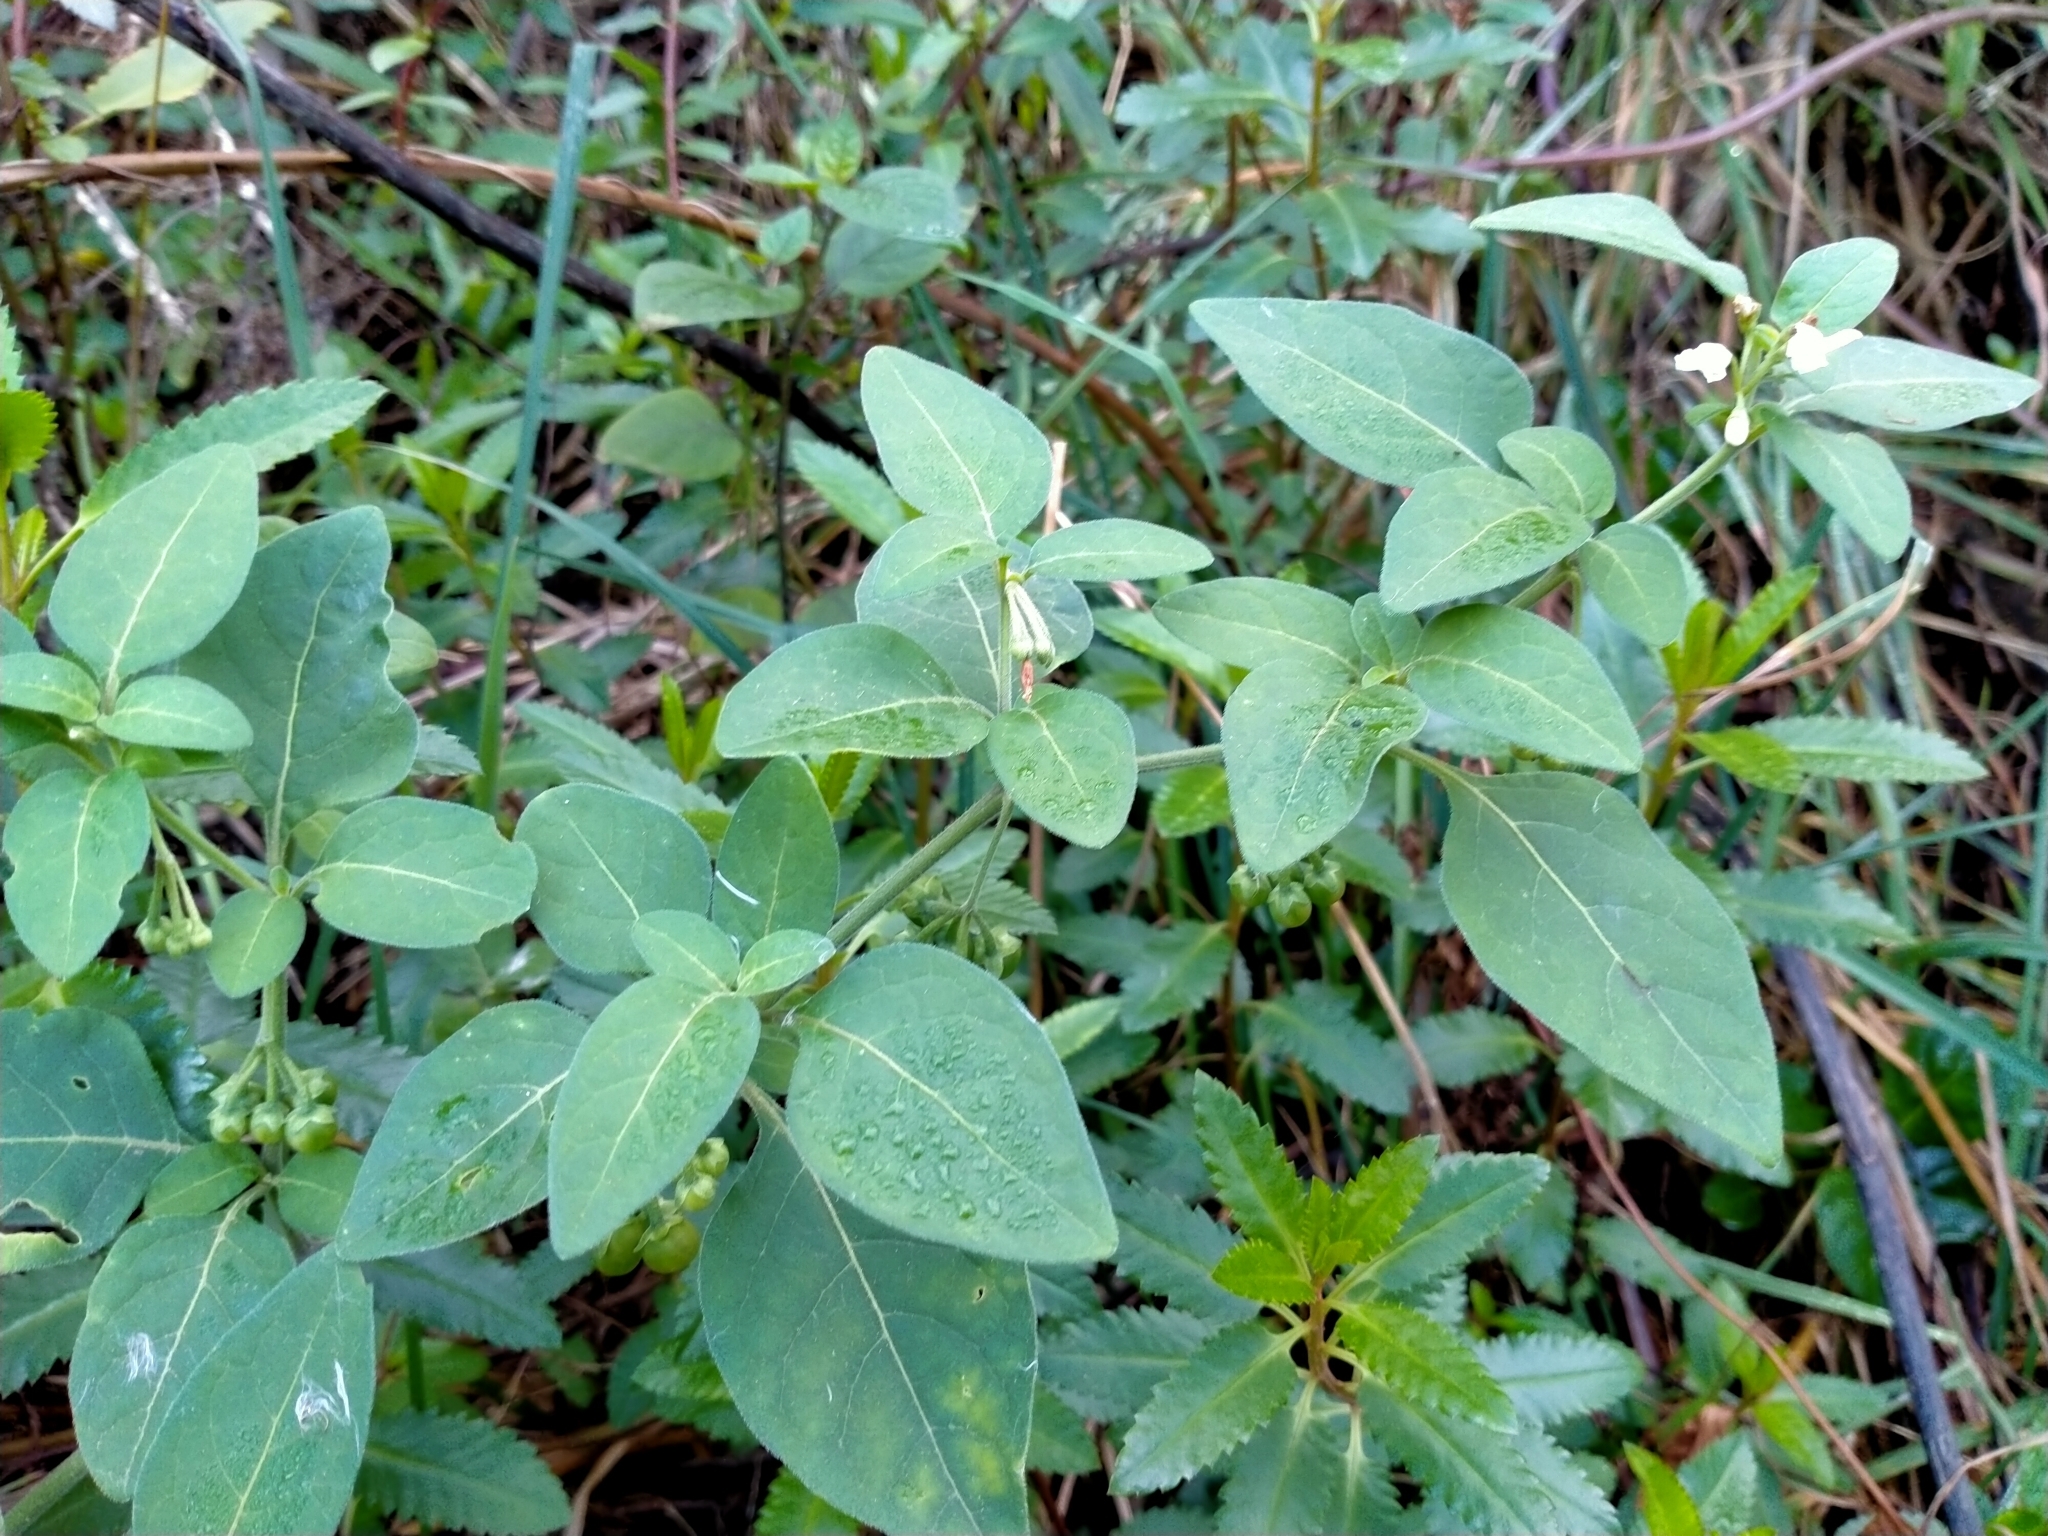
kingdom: Plantae
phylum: Tracheophyta
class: Magnoliopsida
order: Solanales
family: Solanaceae
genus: Solanum
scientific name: Solanum chenopodioides
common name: Tall nightshade
